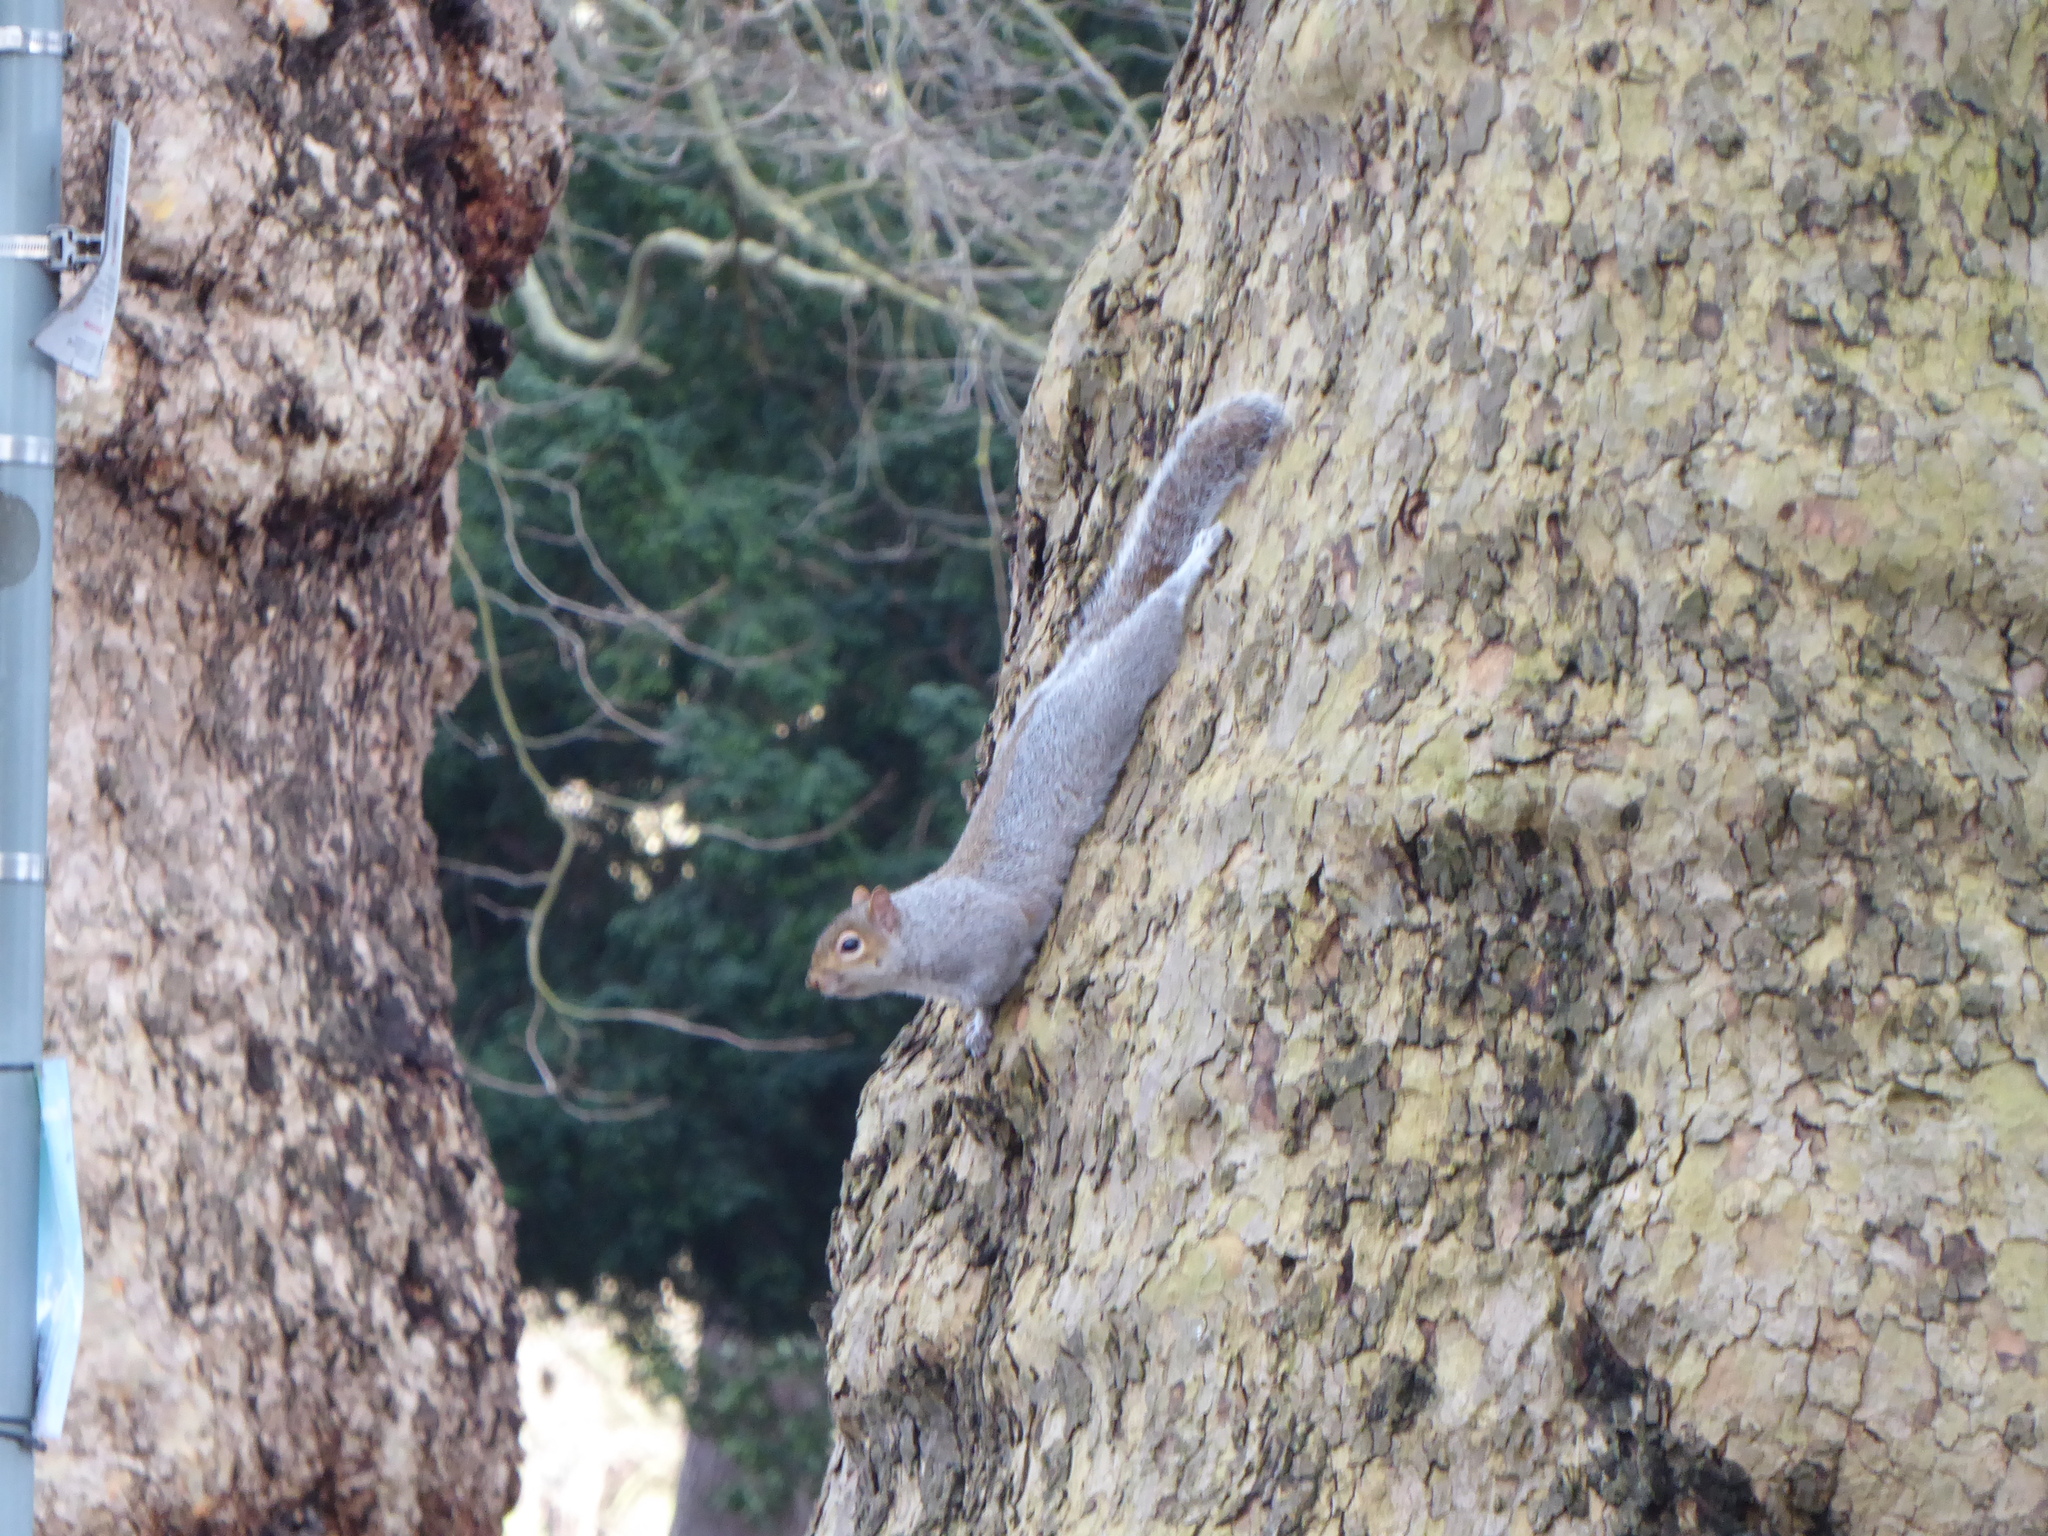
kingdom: Animalia
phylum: Chordata
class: Mammalia
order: Rodentia
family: Sciuridae
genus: Sciurus
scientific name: Sciurus carolinensis
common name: Eastern gray squirrel
